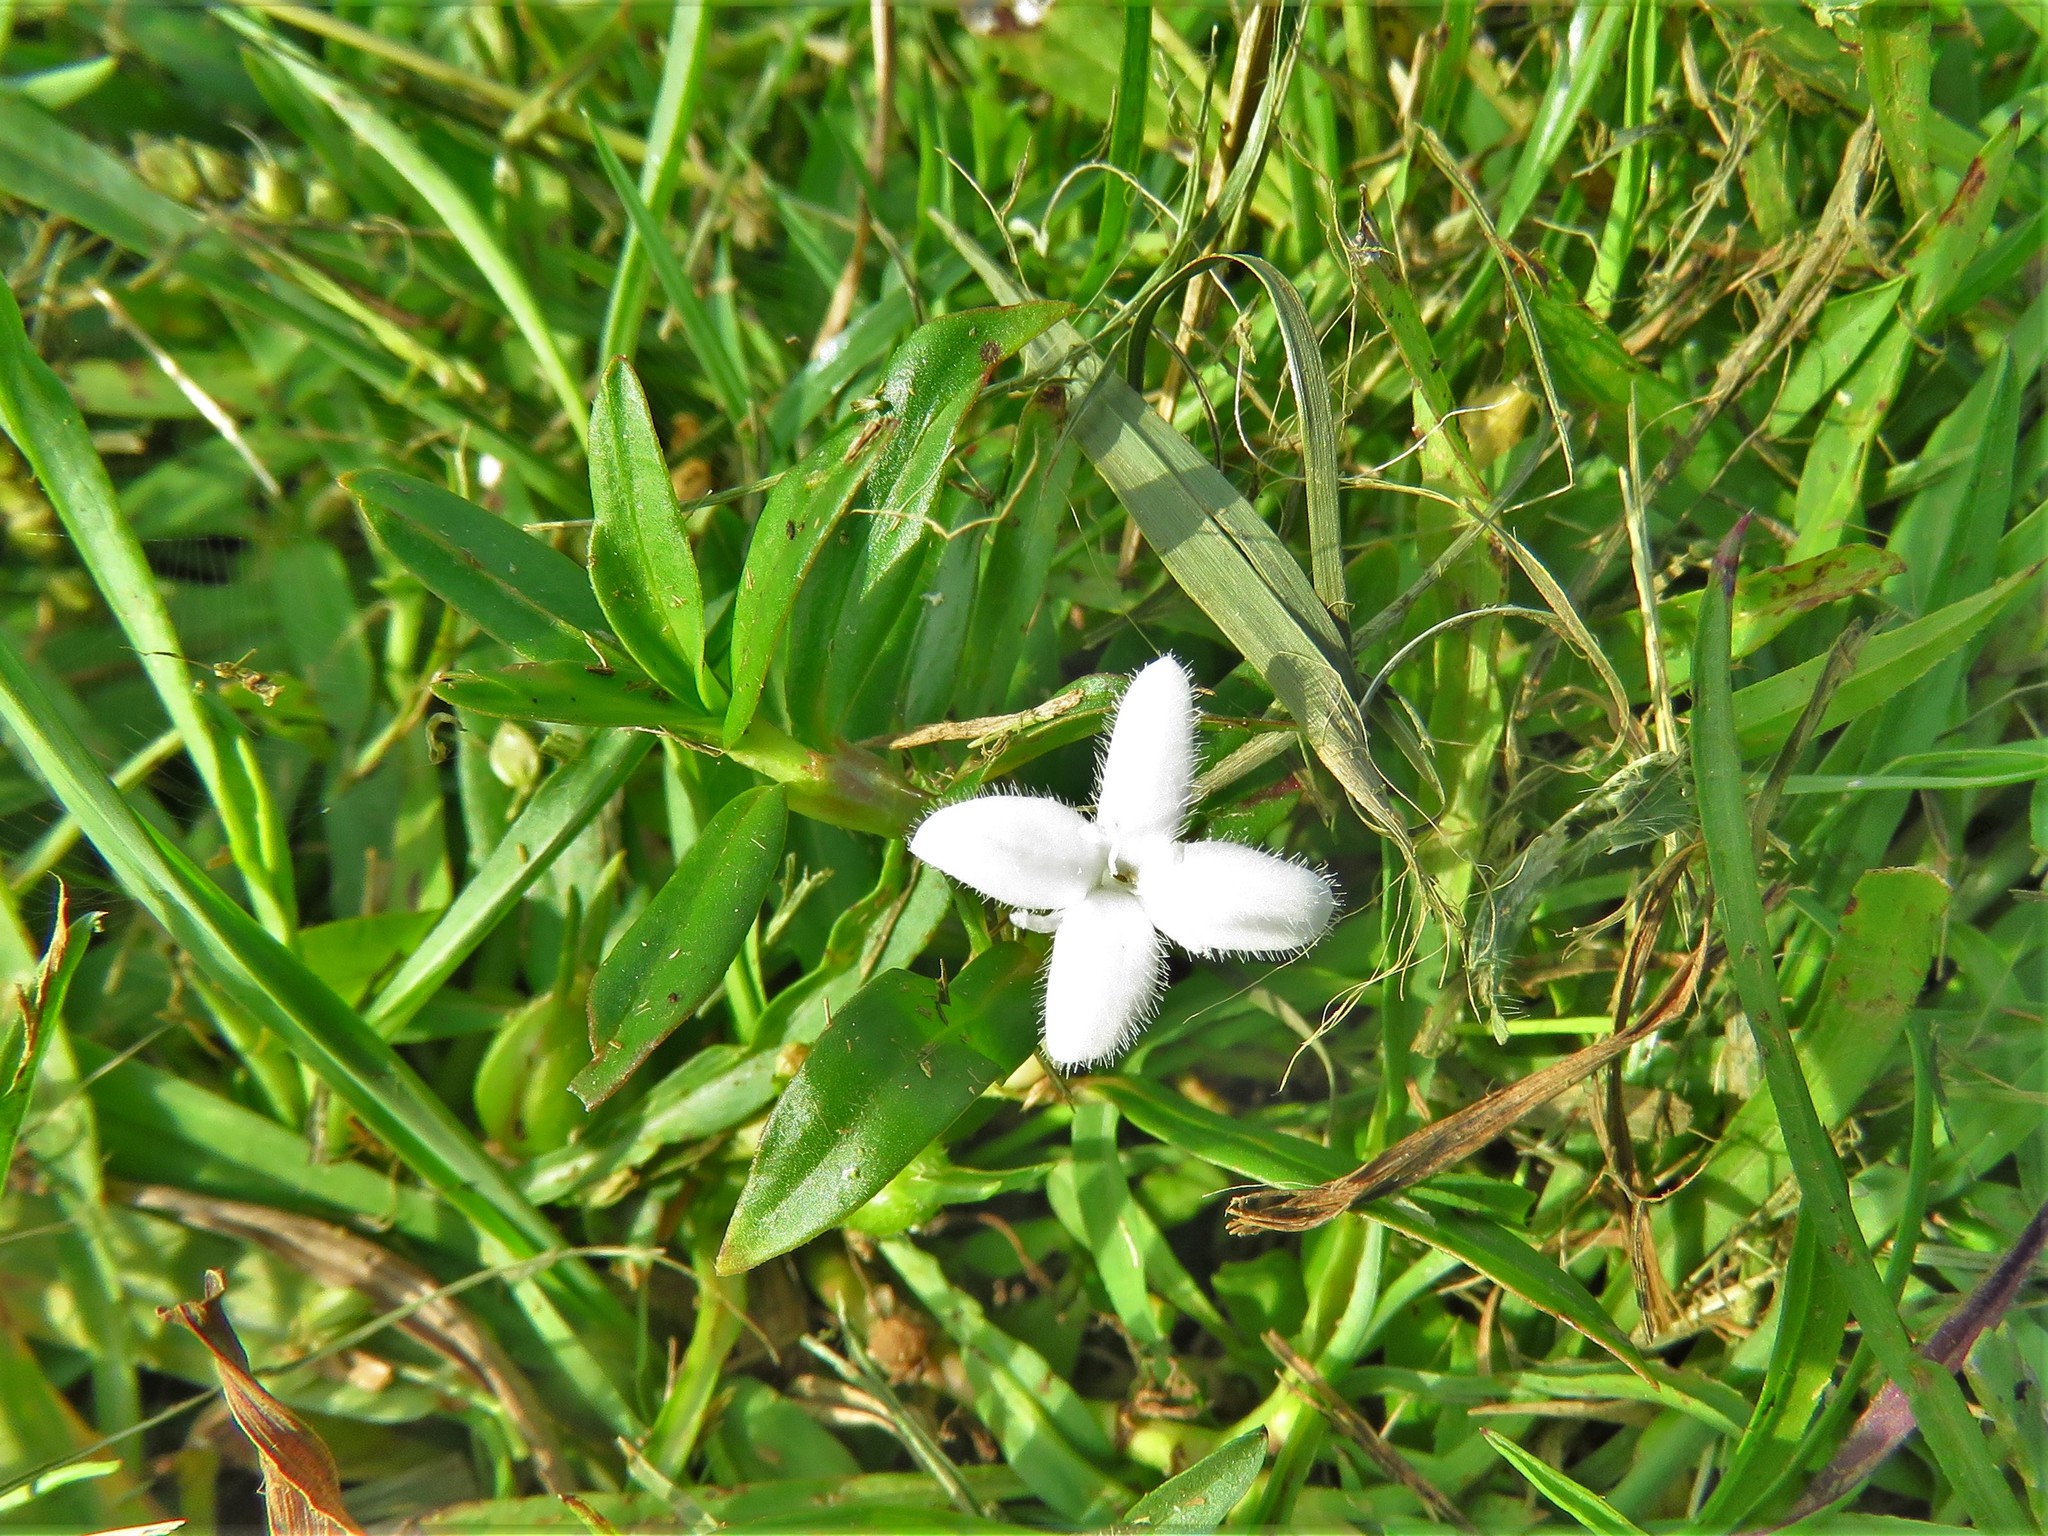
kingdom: Plantae
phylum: Tracheophyta
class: Magnoliopsida
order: Gentianales
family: Rubiaceae
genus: Diodia
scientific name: Diodia virginiana
